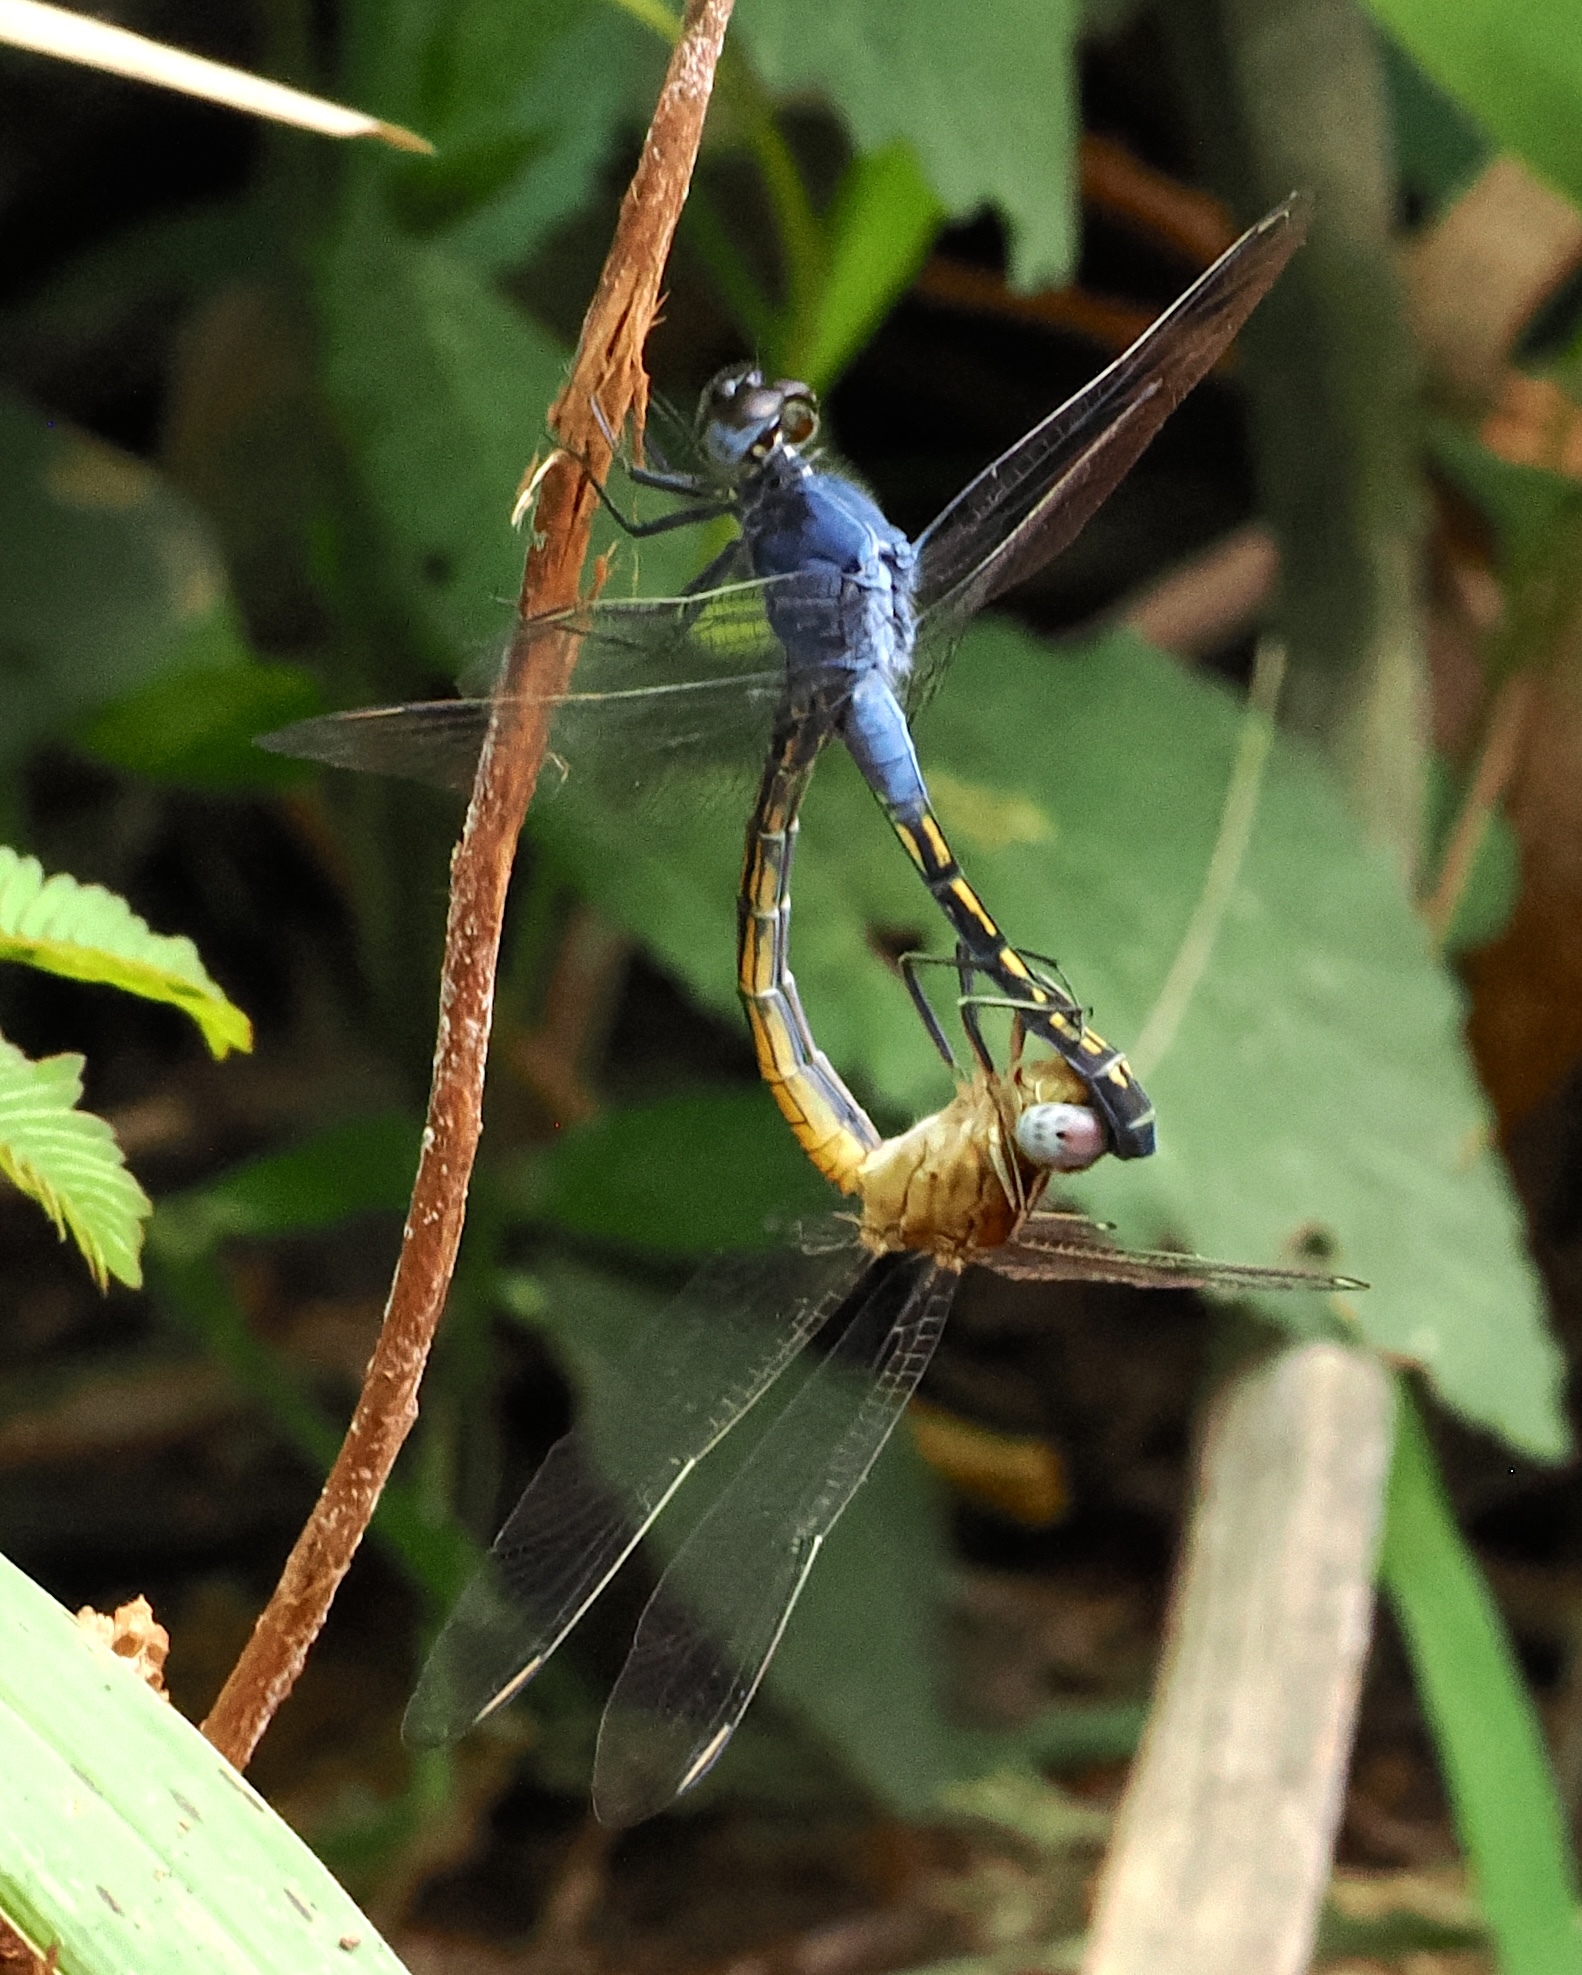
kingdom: Animalia
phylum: Arthropoda
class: Insecta
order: Odonata
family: Libellulidae
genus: Nesciothemis
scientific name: Nesciothemis pujoli
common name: Western blacktail
